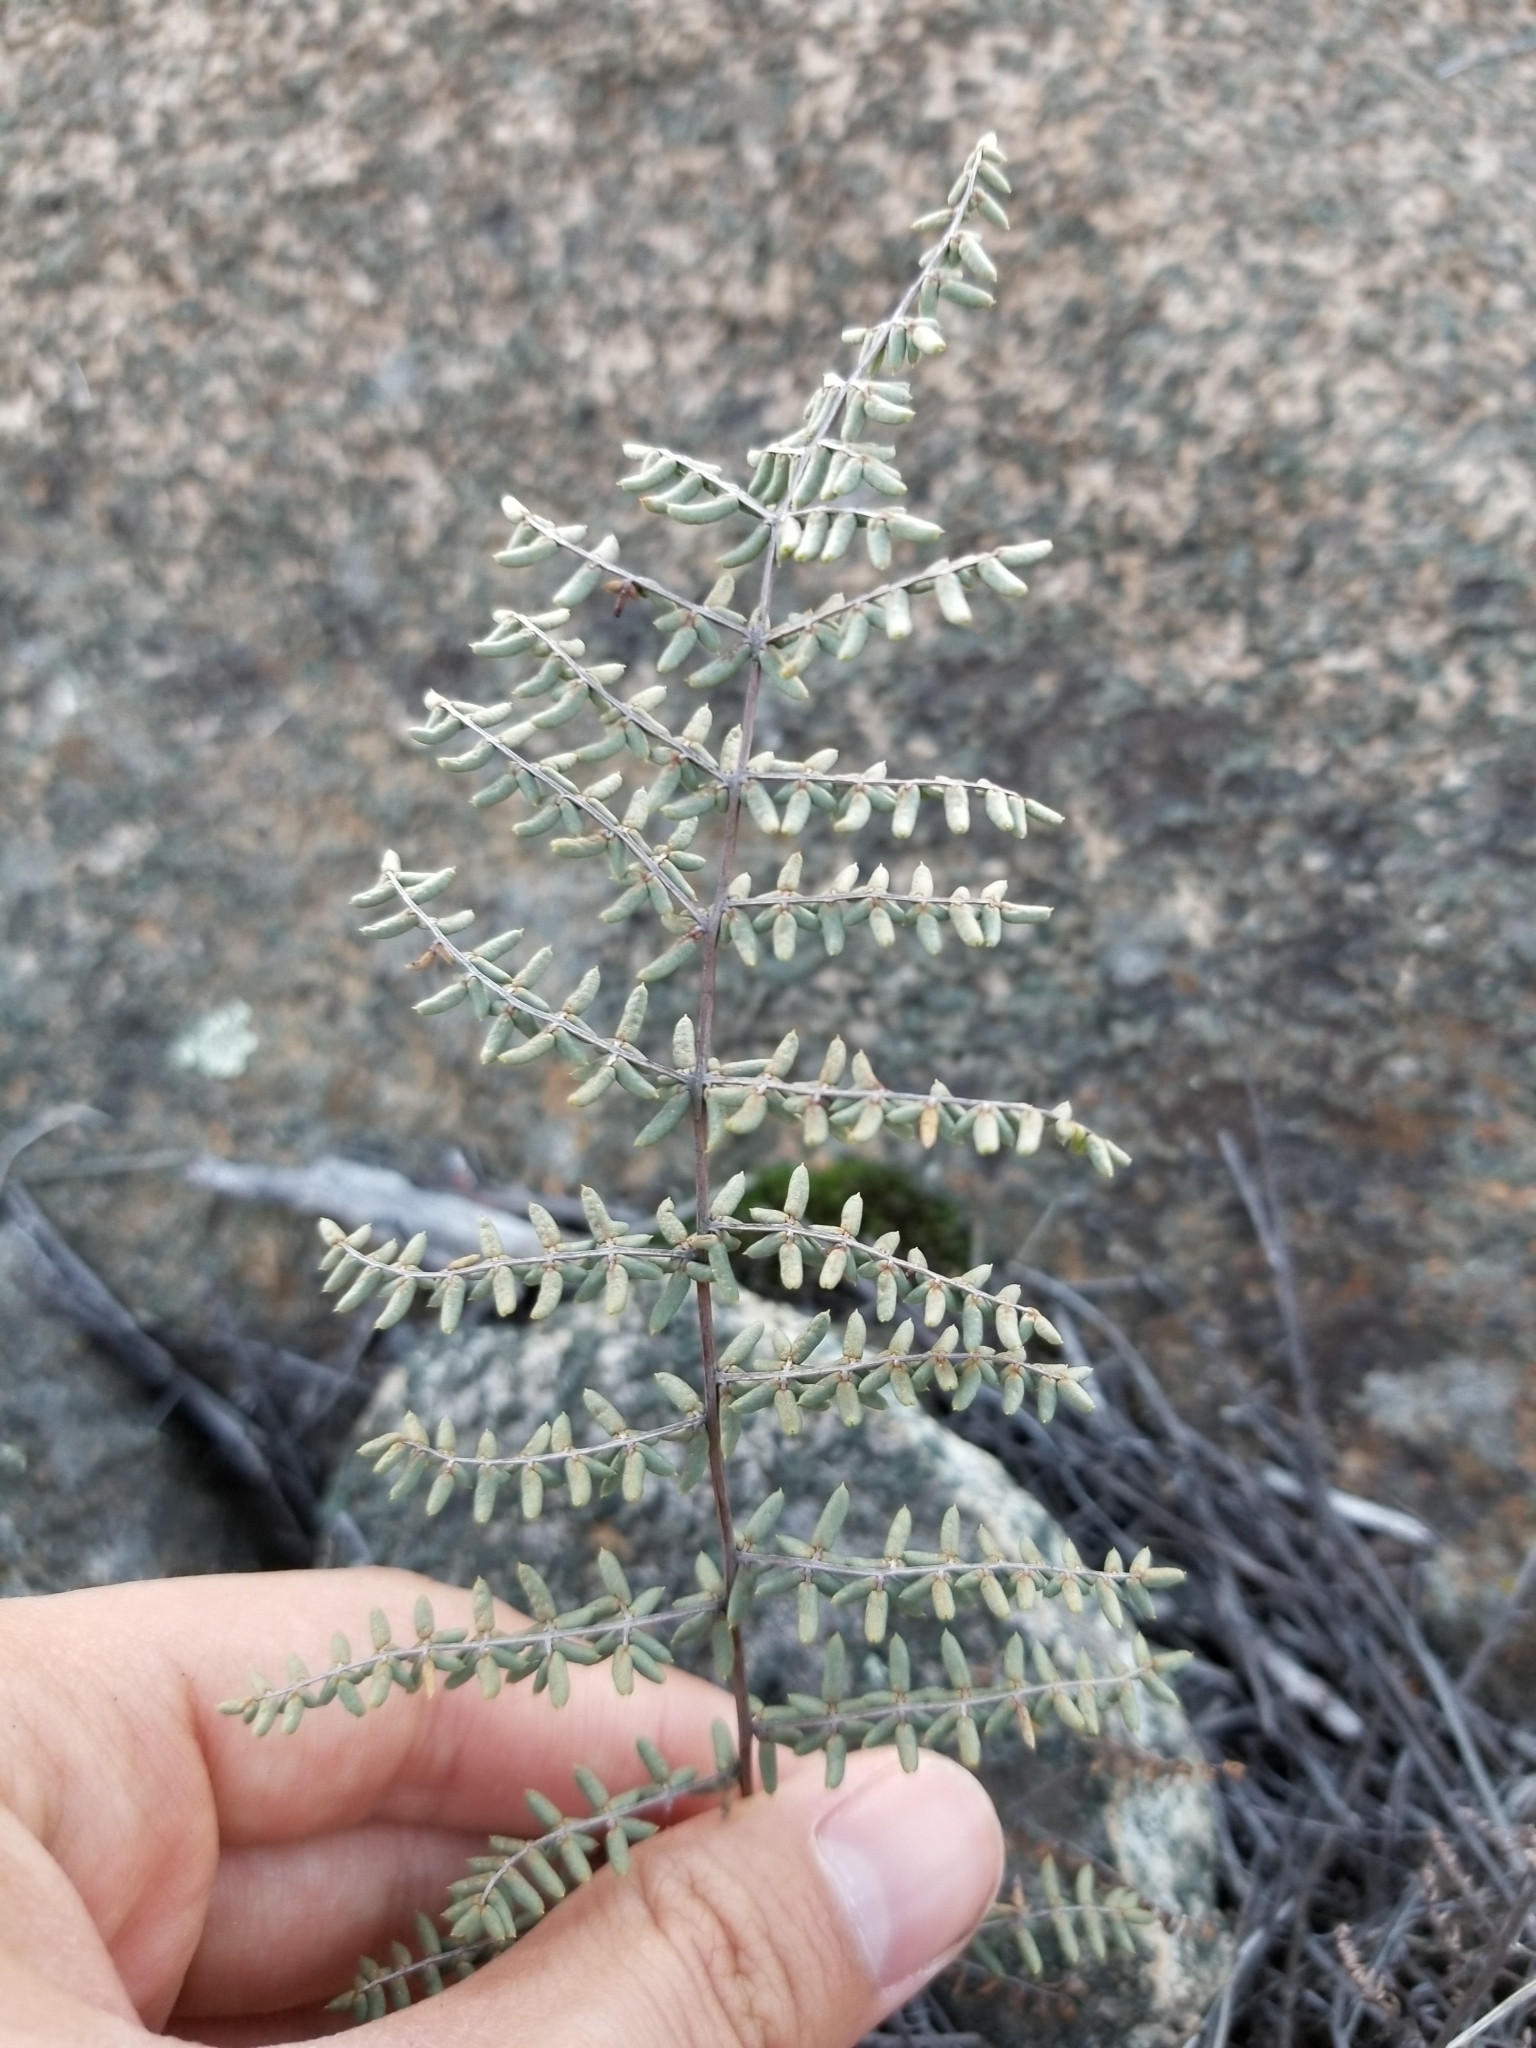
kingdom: Plantae
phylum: Tracheophyta
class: Polypodiopsida
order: Polypodiales
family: Pteridaceae
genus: Pellaea
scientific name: Pellaea mucronata
